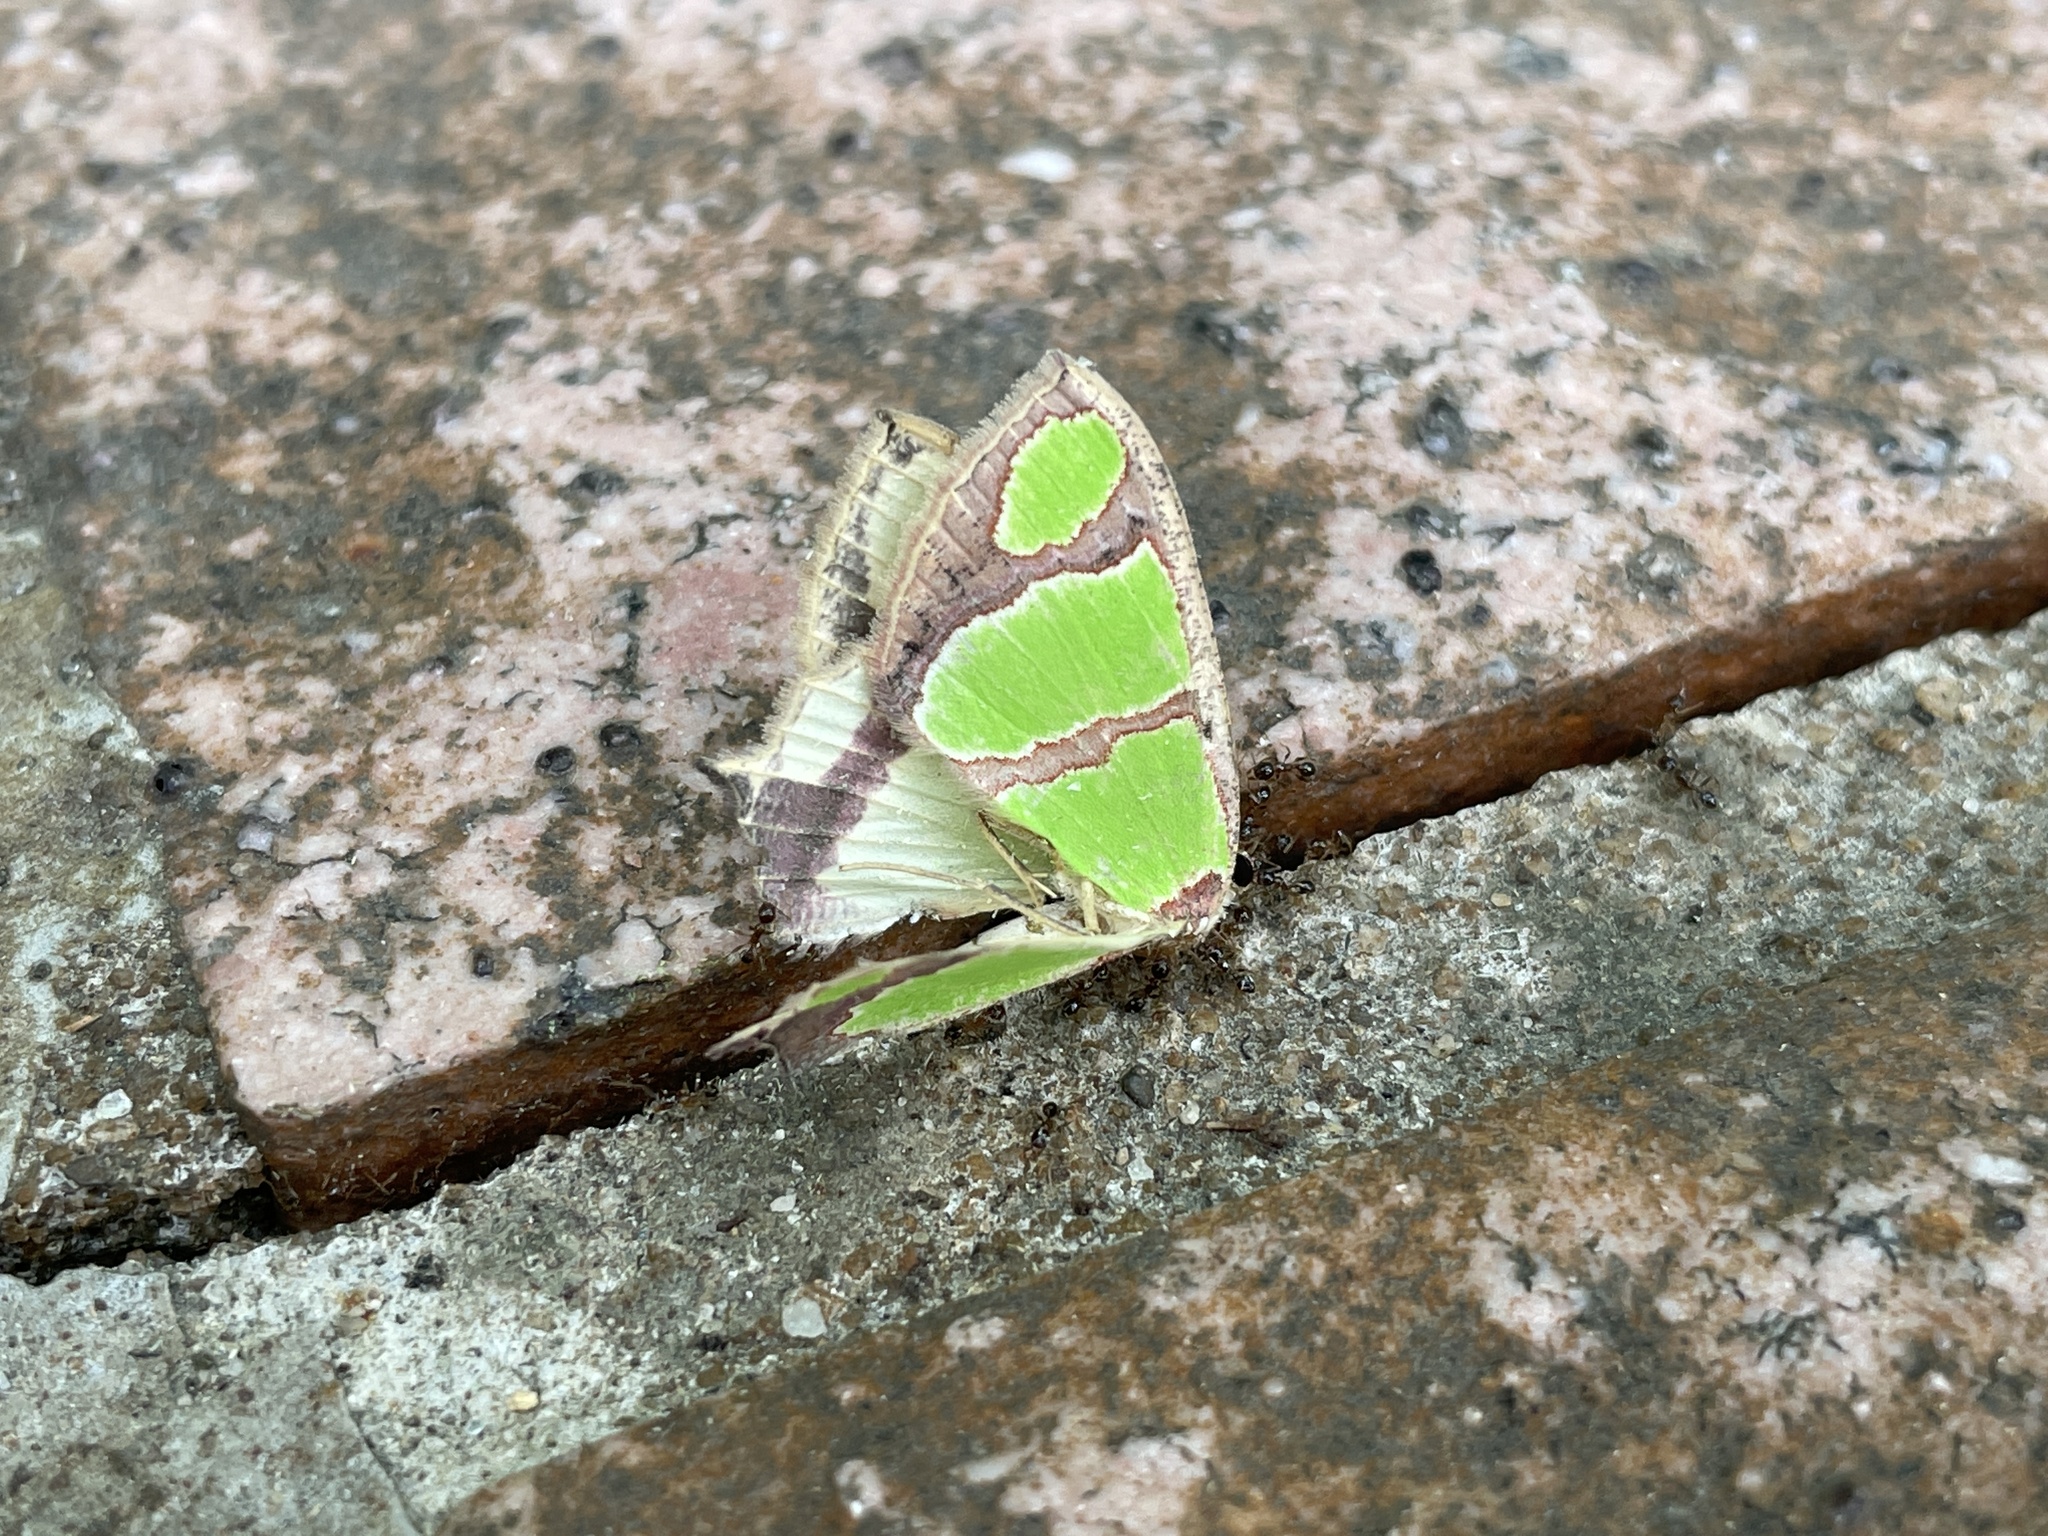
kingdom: Animalia
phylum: Arthropoda
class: Insecta
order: Lepidoptera
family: Geometridae
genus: Agathia
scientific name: Agathia carissima
